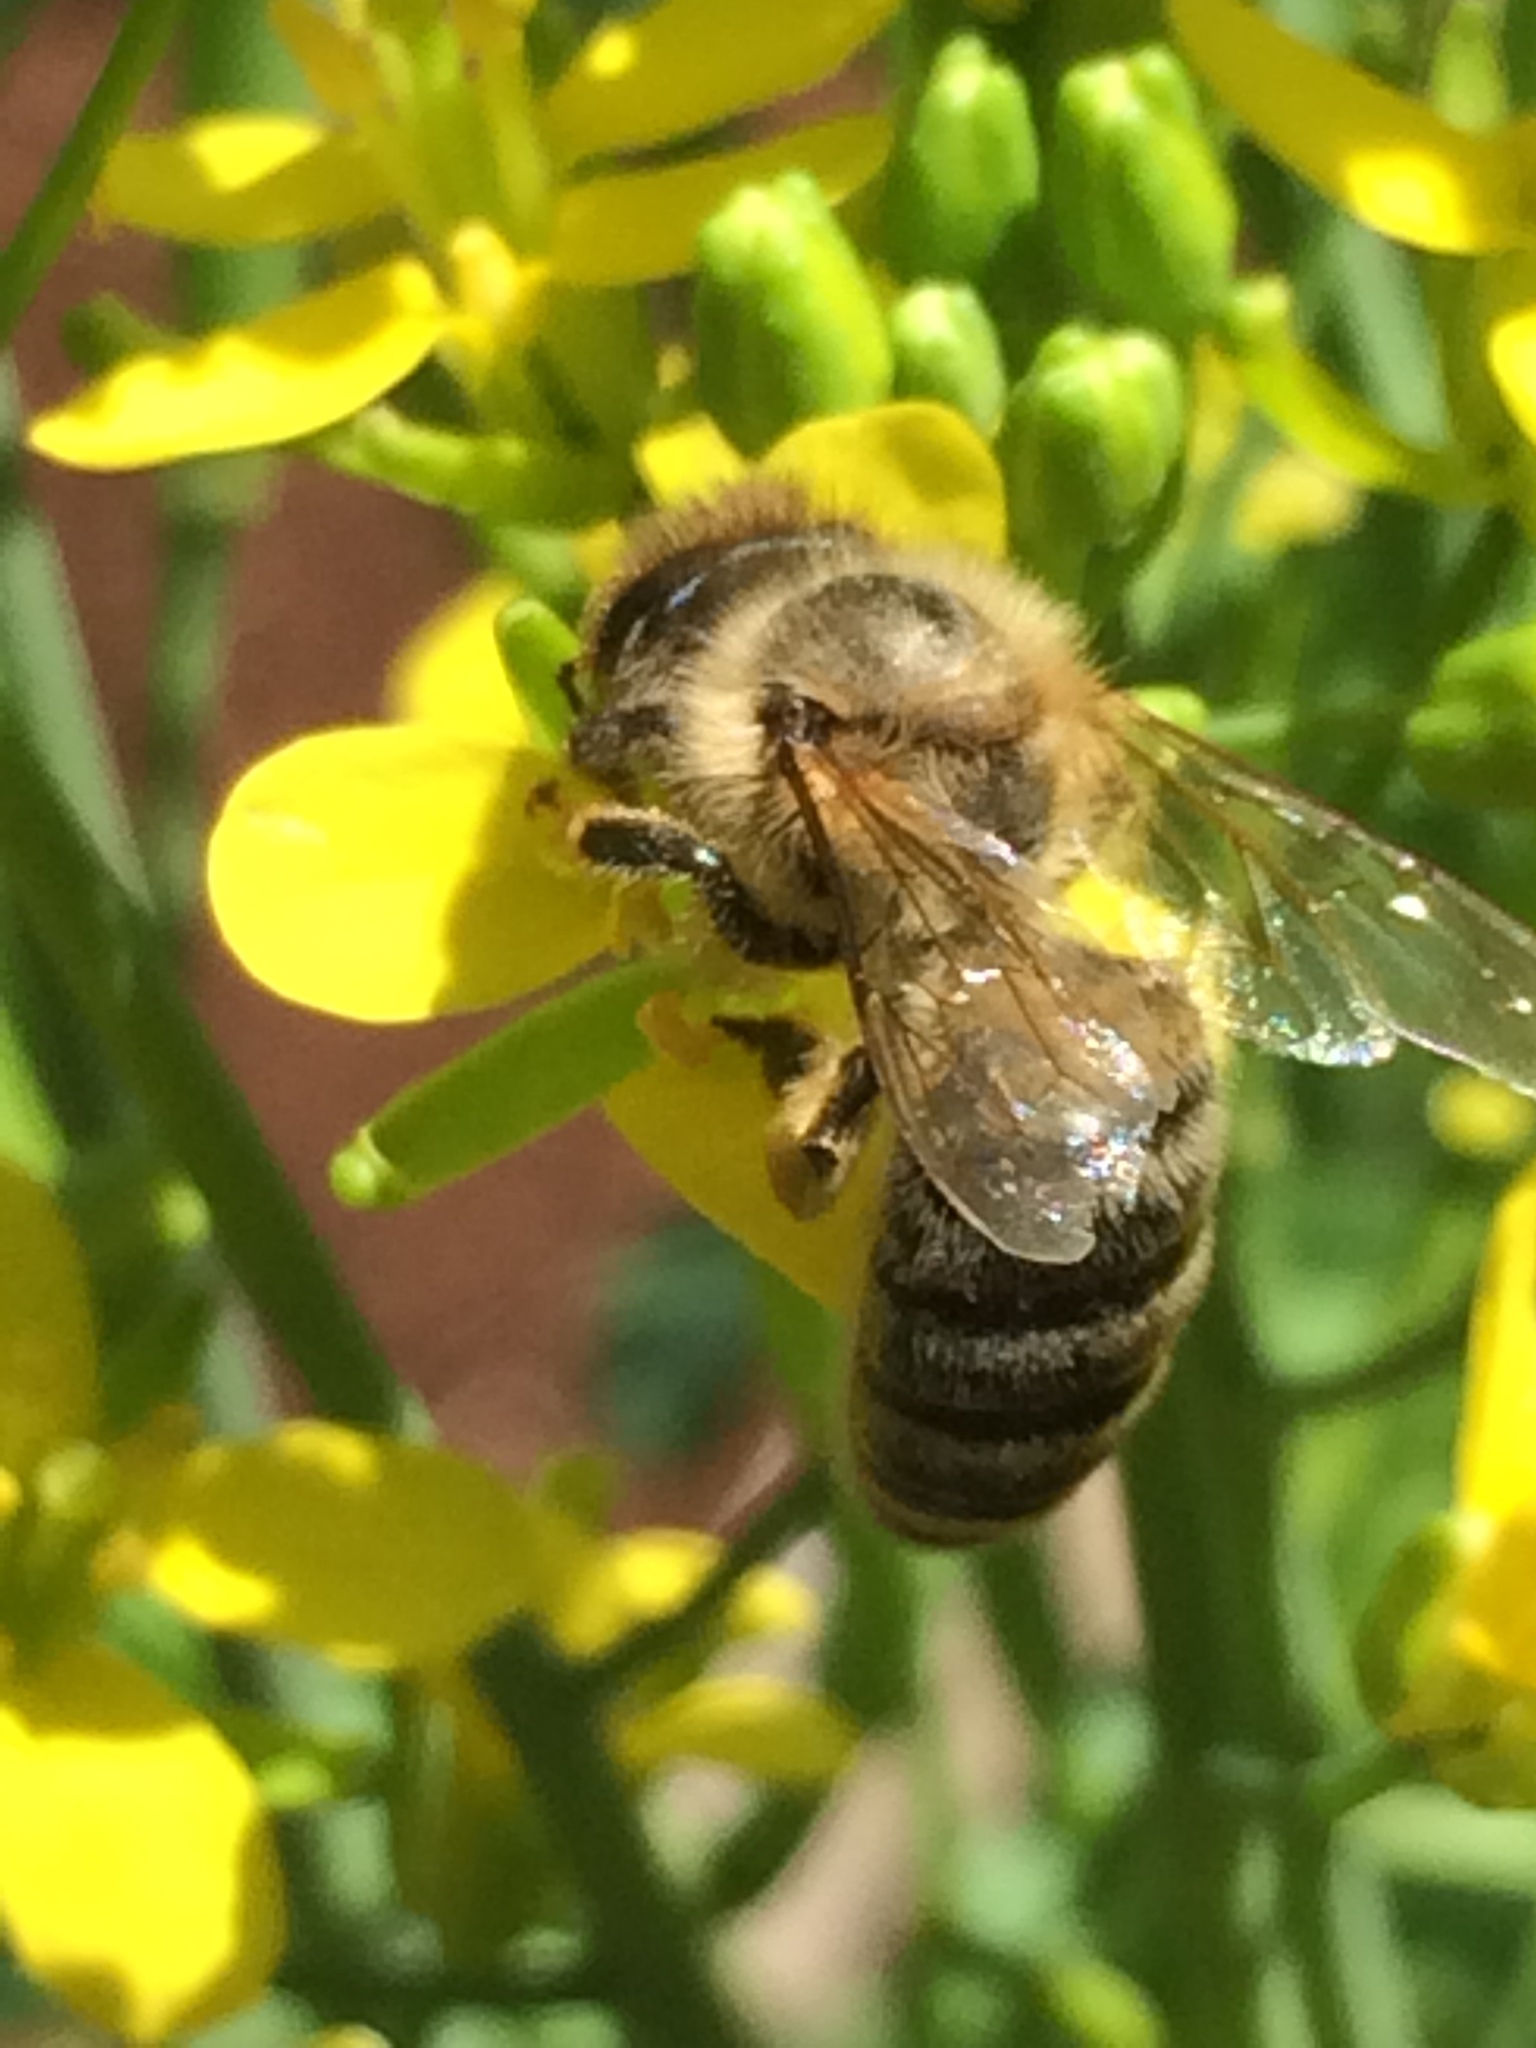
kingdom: Animalia
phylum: Arthropoda
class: Insecta
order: Hymenoptera
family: Apidae
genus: Apis
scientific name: Apis mellifera
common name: Honey bee
